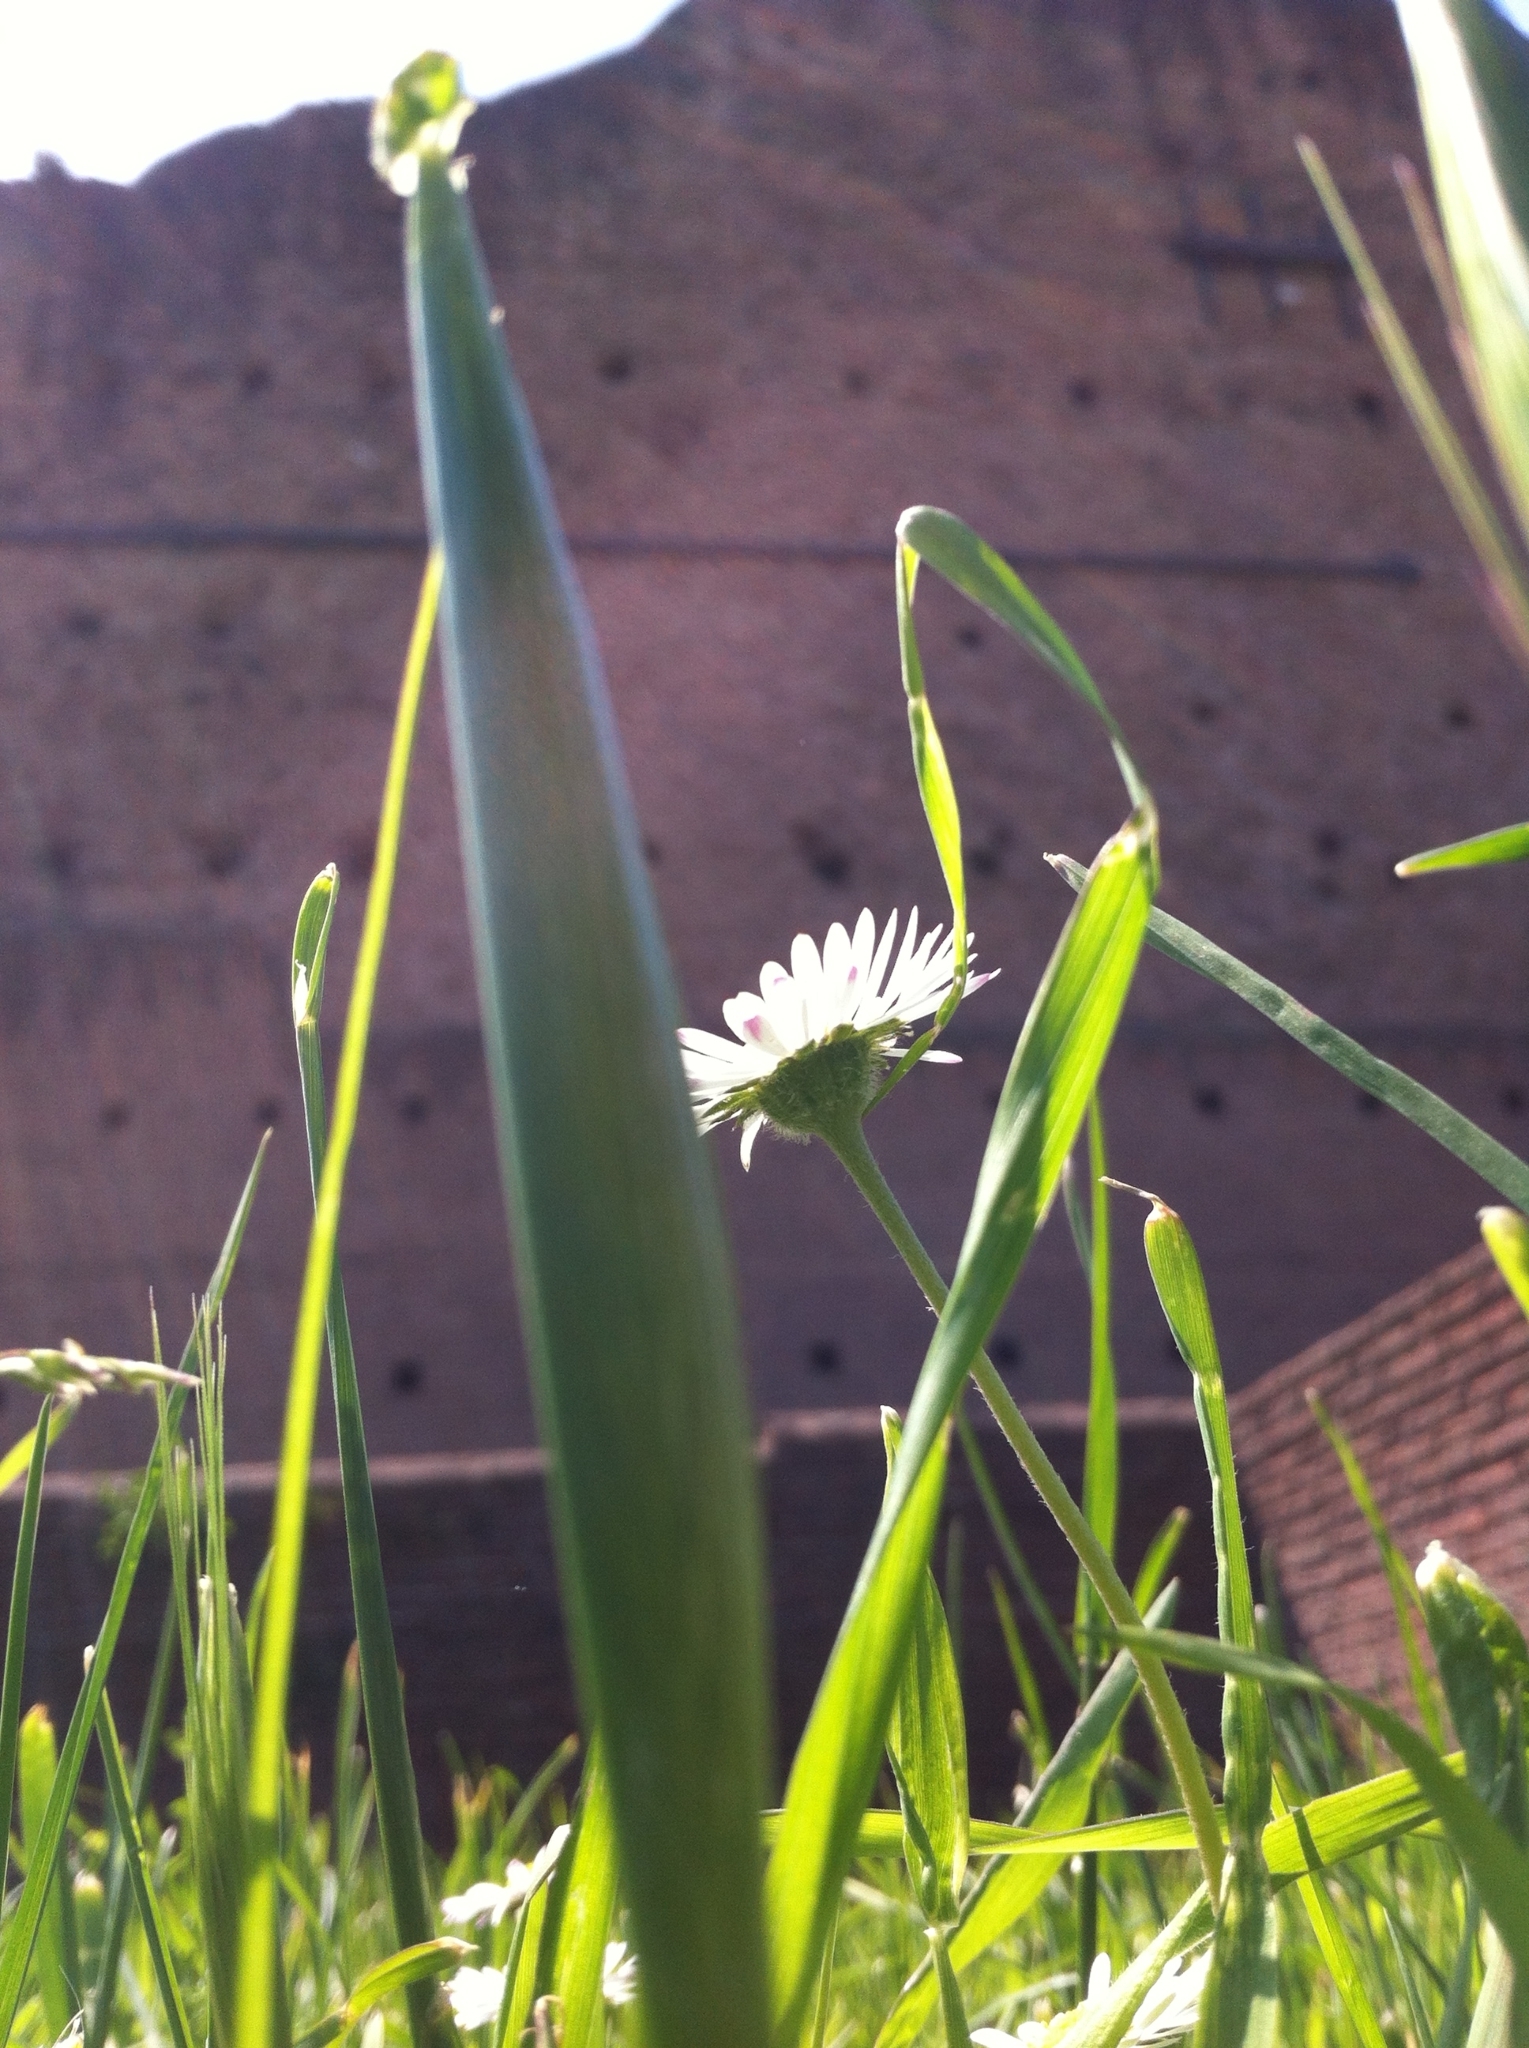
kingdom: Plantae
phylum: Tracheophyta
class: Magnoliopsida
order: Asterales
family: Asteraceae
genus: Bellis
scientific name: Bellis perennis
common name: Lawndaisy
